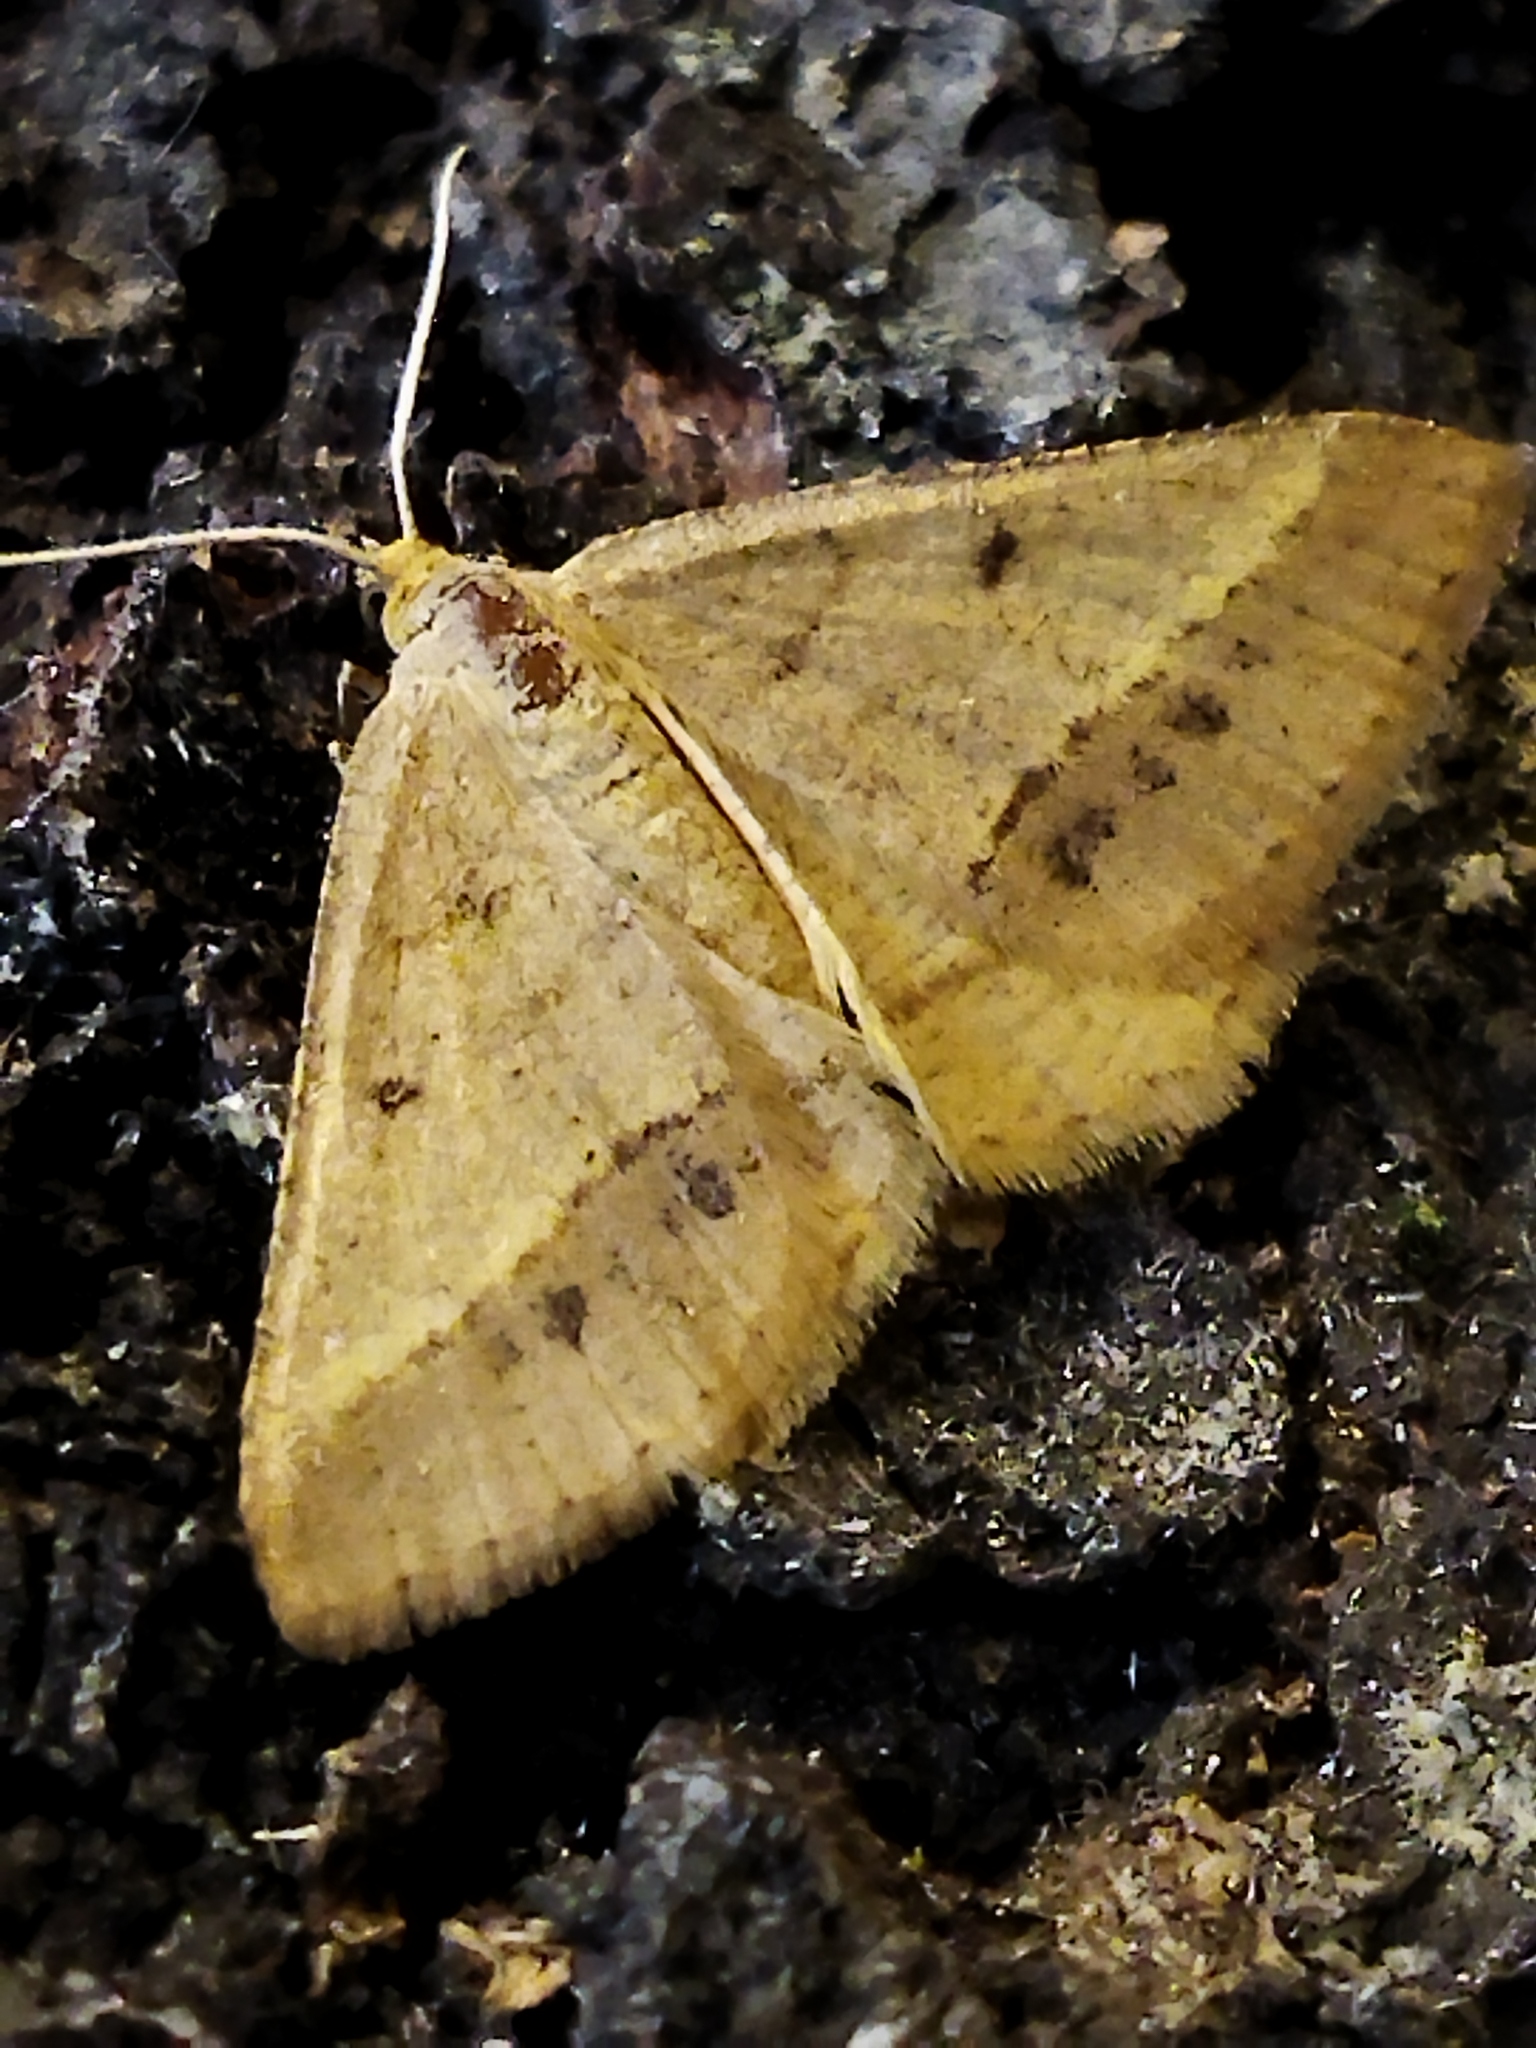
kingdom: Animalia
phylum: Arthropoda
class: Insecta
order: Lepidoptera
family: Geometridae
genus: Tephrina
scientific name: Tephrina arenacearia
